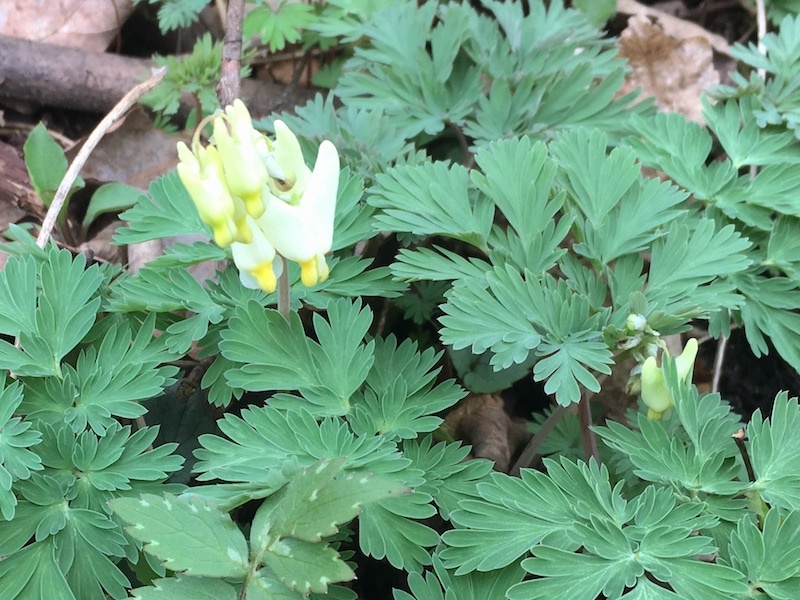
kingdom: Plantae
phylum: Tracheophyta
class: Magnoliopsida
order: Ranunculales
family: Papaveraceae
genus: Dicentra
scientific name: Dicentra cucullaria
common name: Dutchman's breeches
